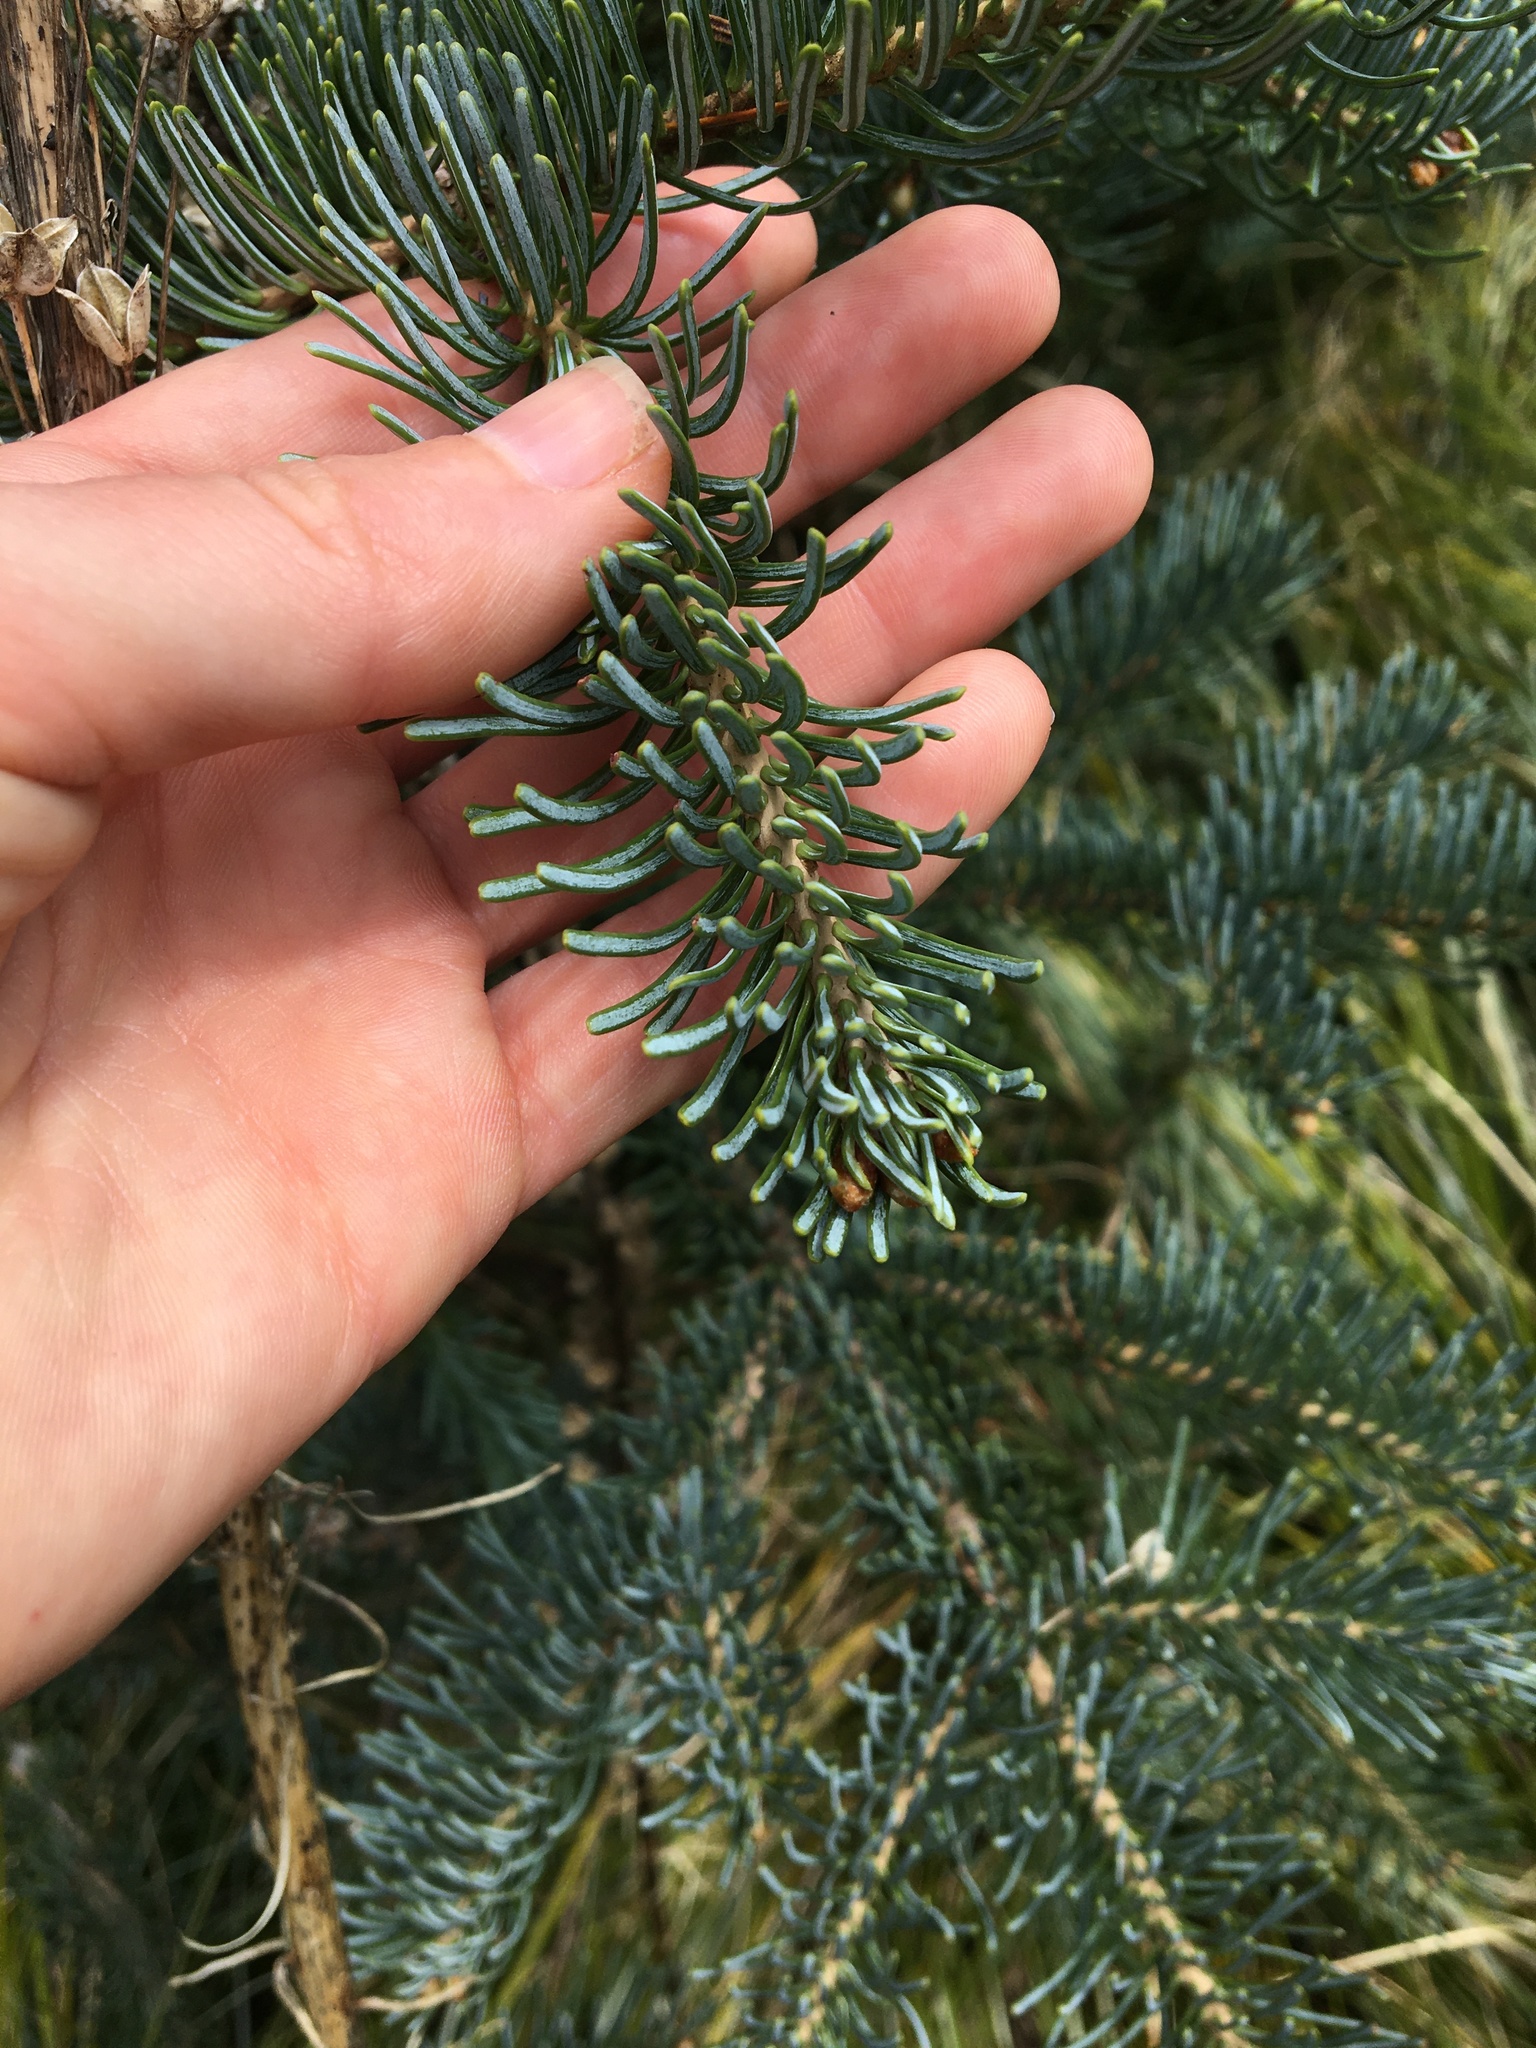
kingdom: Plantae
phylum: Tracheophyta
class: Pinopsida
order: Pinales
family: Pinaceae
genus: Abies
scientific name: Abies procera
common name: Noble fir
